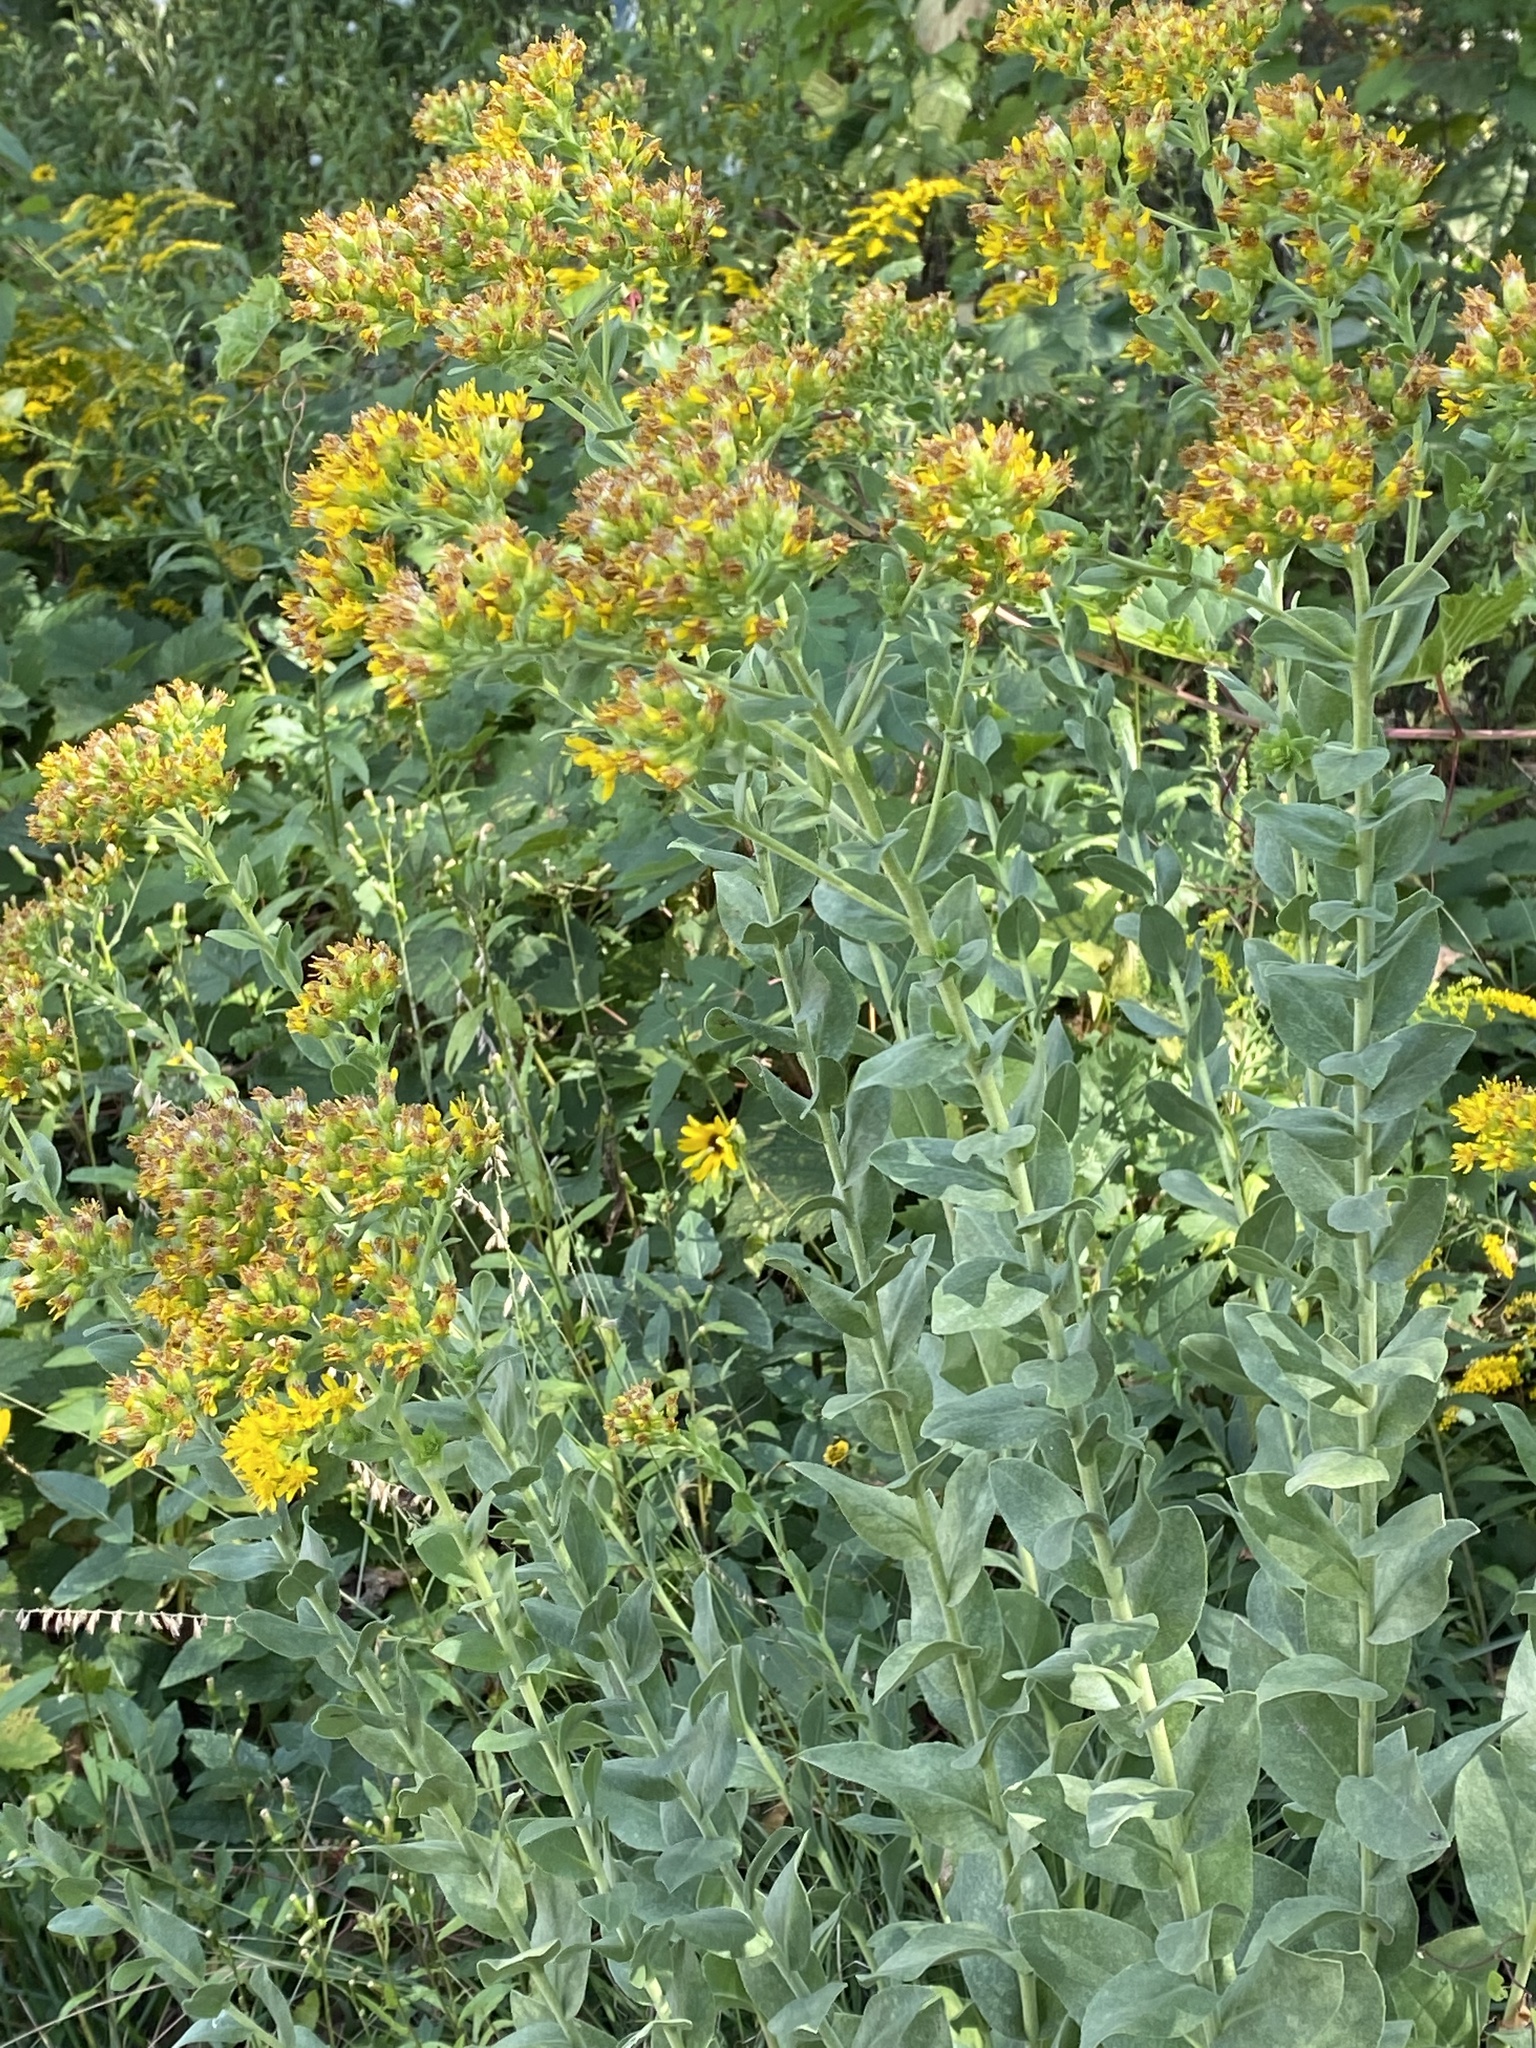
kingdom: Plantae
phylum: Tracheophyta
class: Magnoliopsida
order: Asterales
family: Asteraceae
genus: Solidago
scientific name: Solidago rigida
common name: Rigid goldenrod
